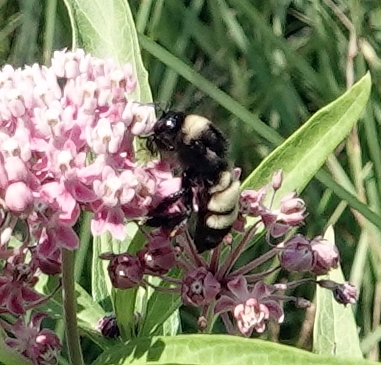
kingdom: Animalia
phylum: Arthropoda
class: Insecta
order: Hymenoptera
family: Apidae
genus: Bombus
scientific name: Bombus pensylvanicus
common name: Bumble bee
